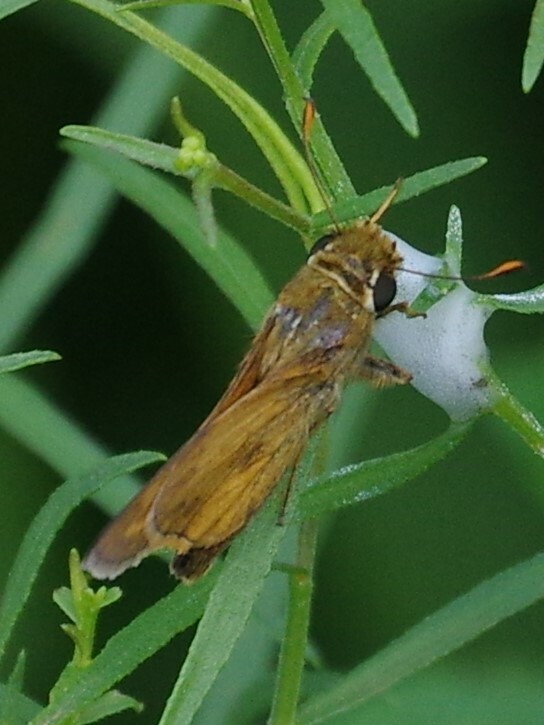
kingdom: Animalia
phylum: Arthropoda
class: Insecta
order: Lepidoptera
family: Hesperiidae
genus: Atalopedes
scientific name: Atalopedes
